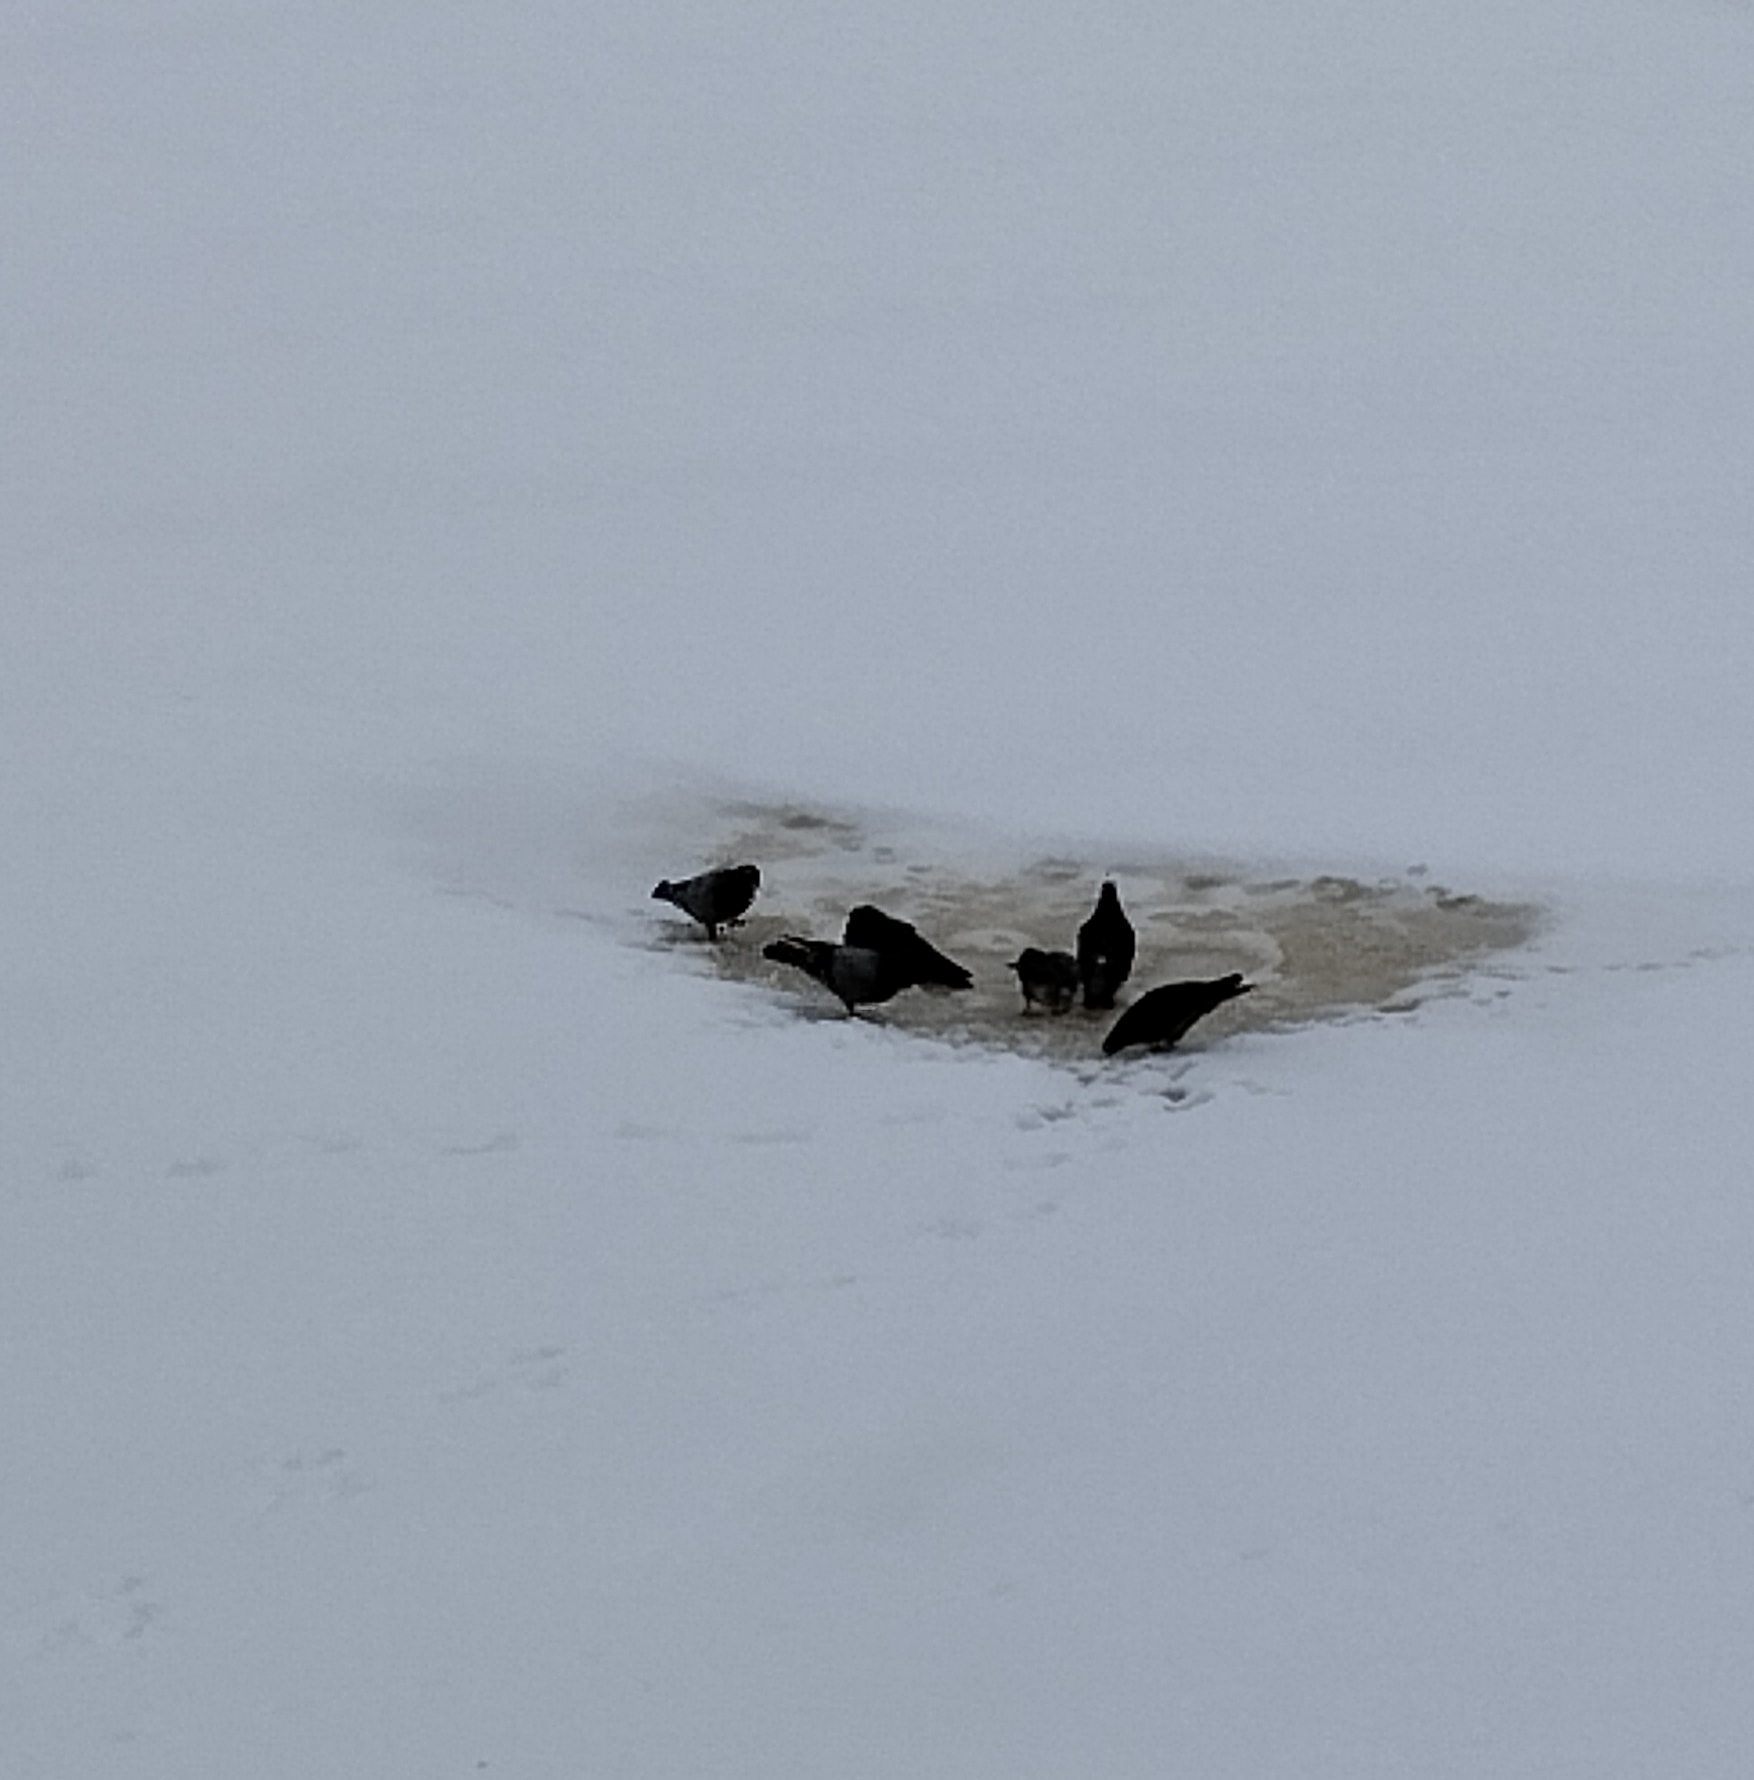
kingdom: Animalia
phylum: Chordata
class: Aves
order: Columbiformes
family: Columbidae
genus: Columba
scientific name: Columba livia
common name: Rock pigeon
